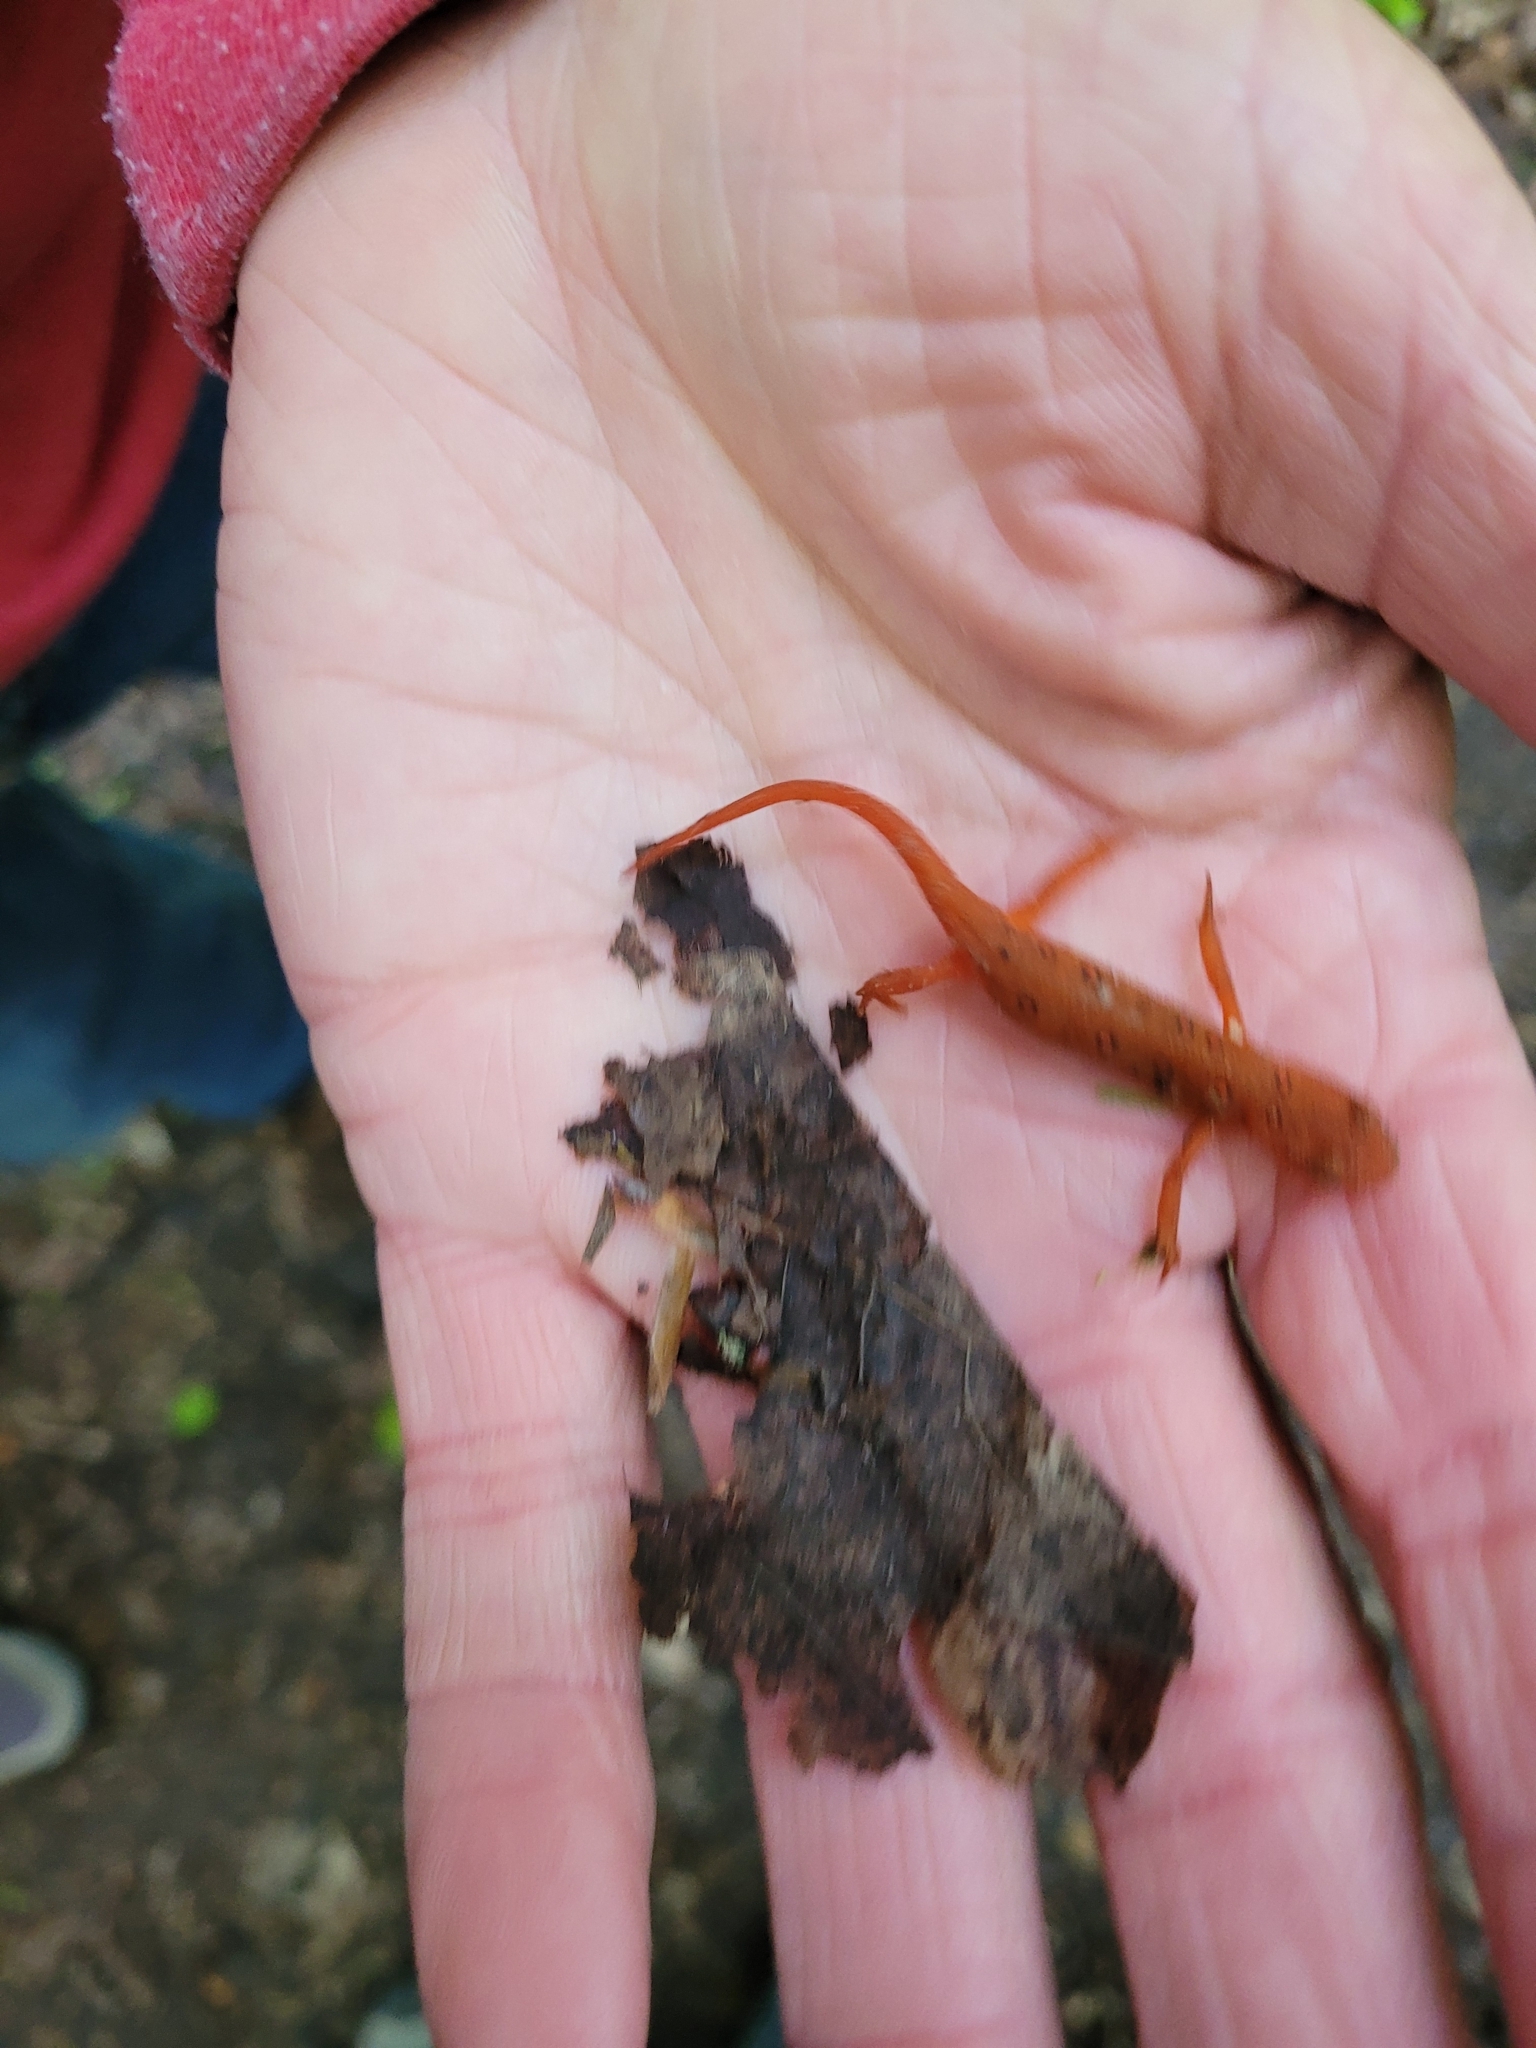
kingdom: Animalia
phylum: Chordata
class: Amphibia
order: Caudata
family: Salamandridae
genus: Notophthalmus
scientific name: Notophthalmus viridescens
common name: Eastern newt
